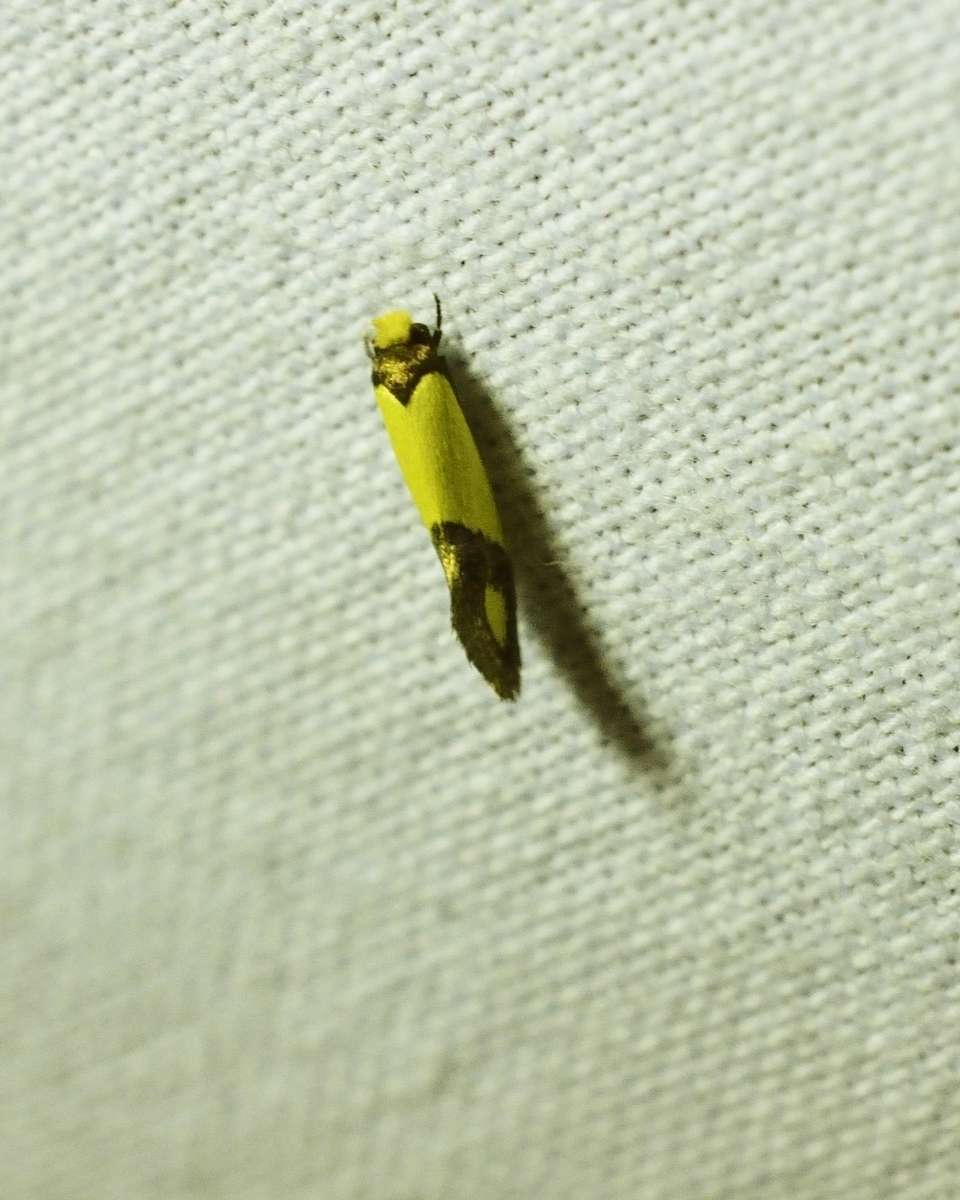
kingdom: Animalia
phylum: Arthropoda
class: Insecta
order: Lepidoptera
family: Tineidae
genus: Edosa
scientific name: Edosa fraudulens
